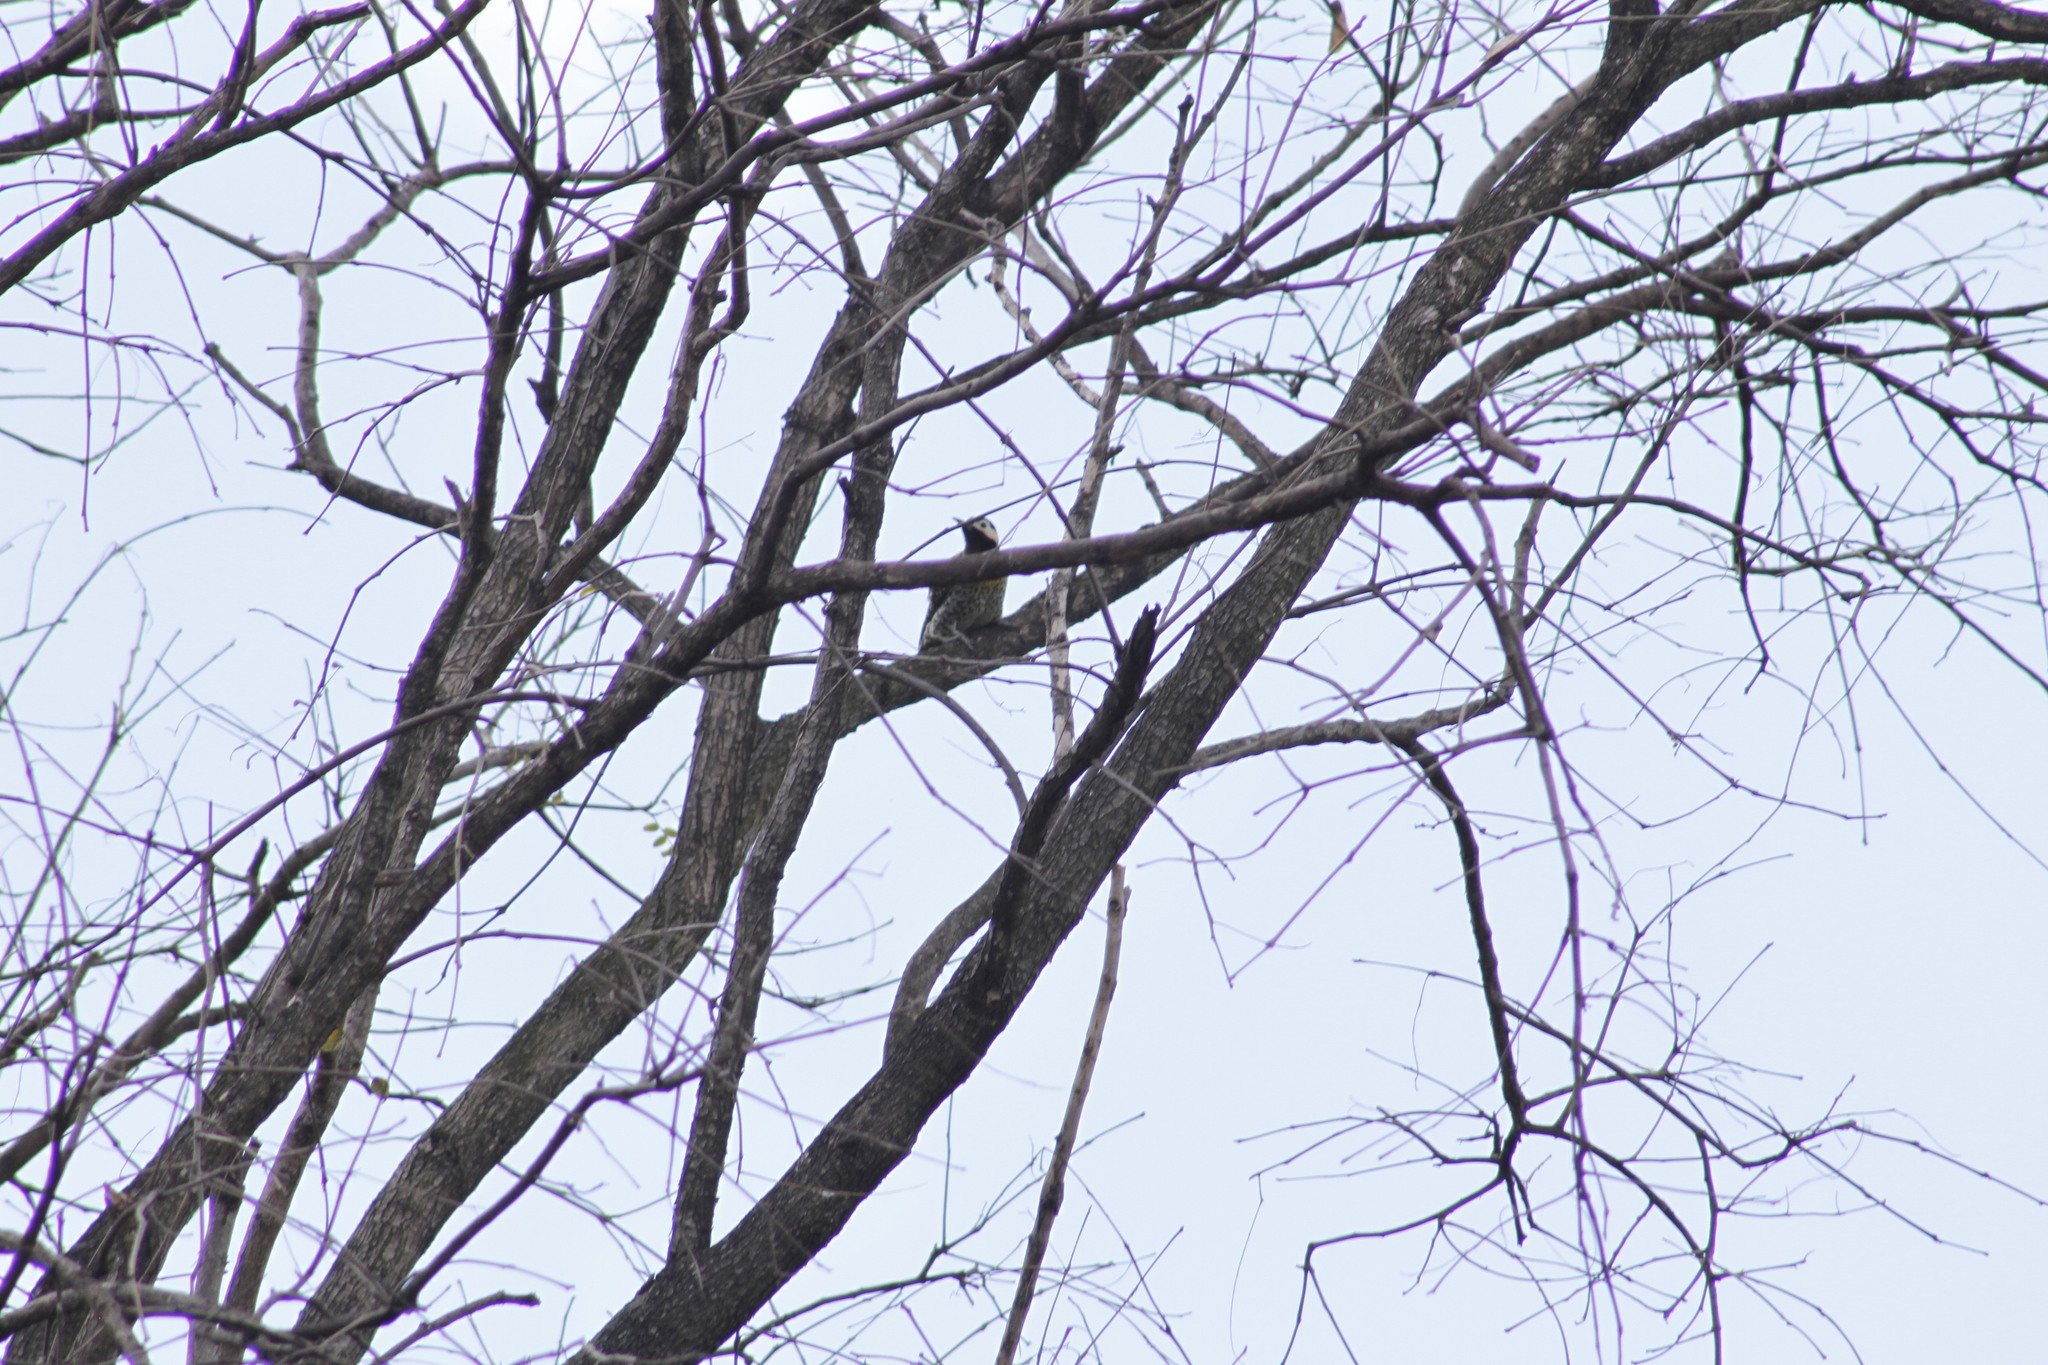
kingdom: Animalia
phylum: Chordata
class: Aves
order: Piciformes
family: Picidae
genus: Colaptes
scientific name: Colaptes melanochloros
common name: Green-barred woodpecker
